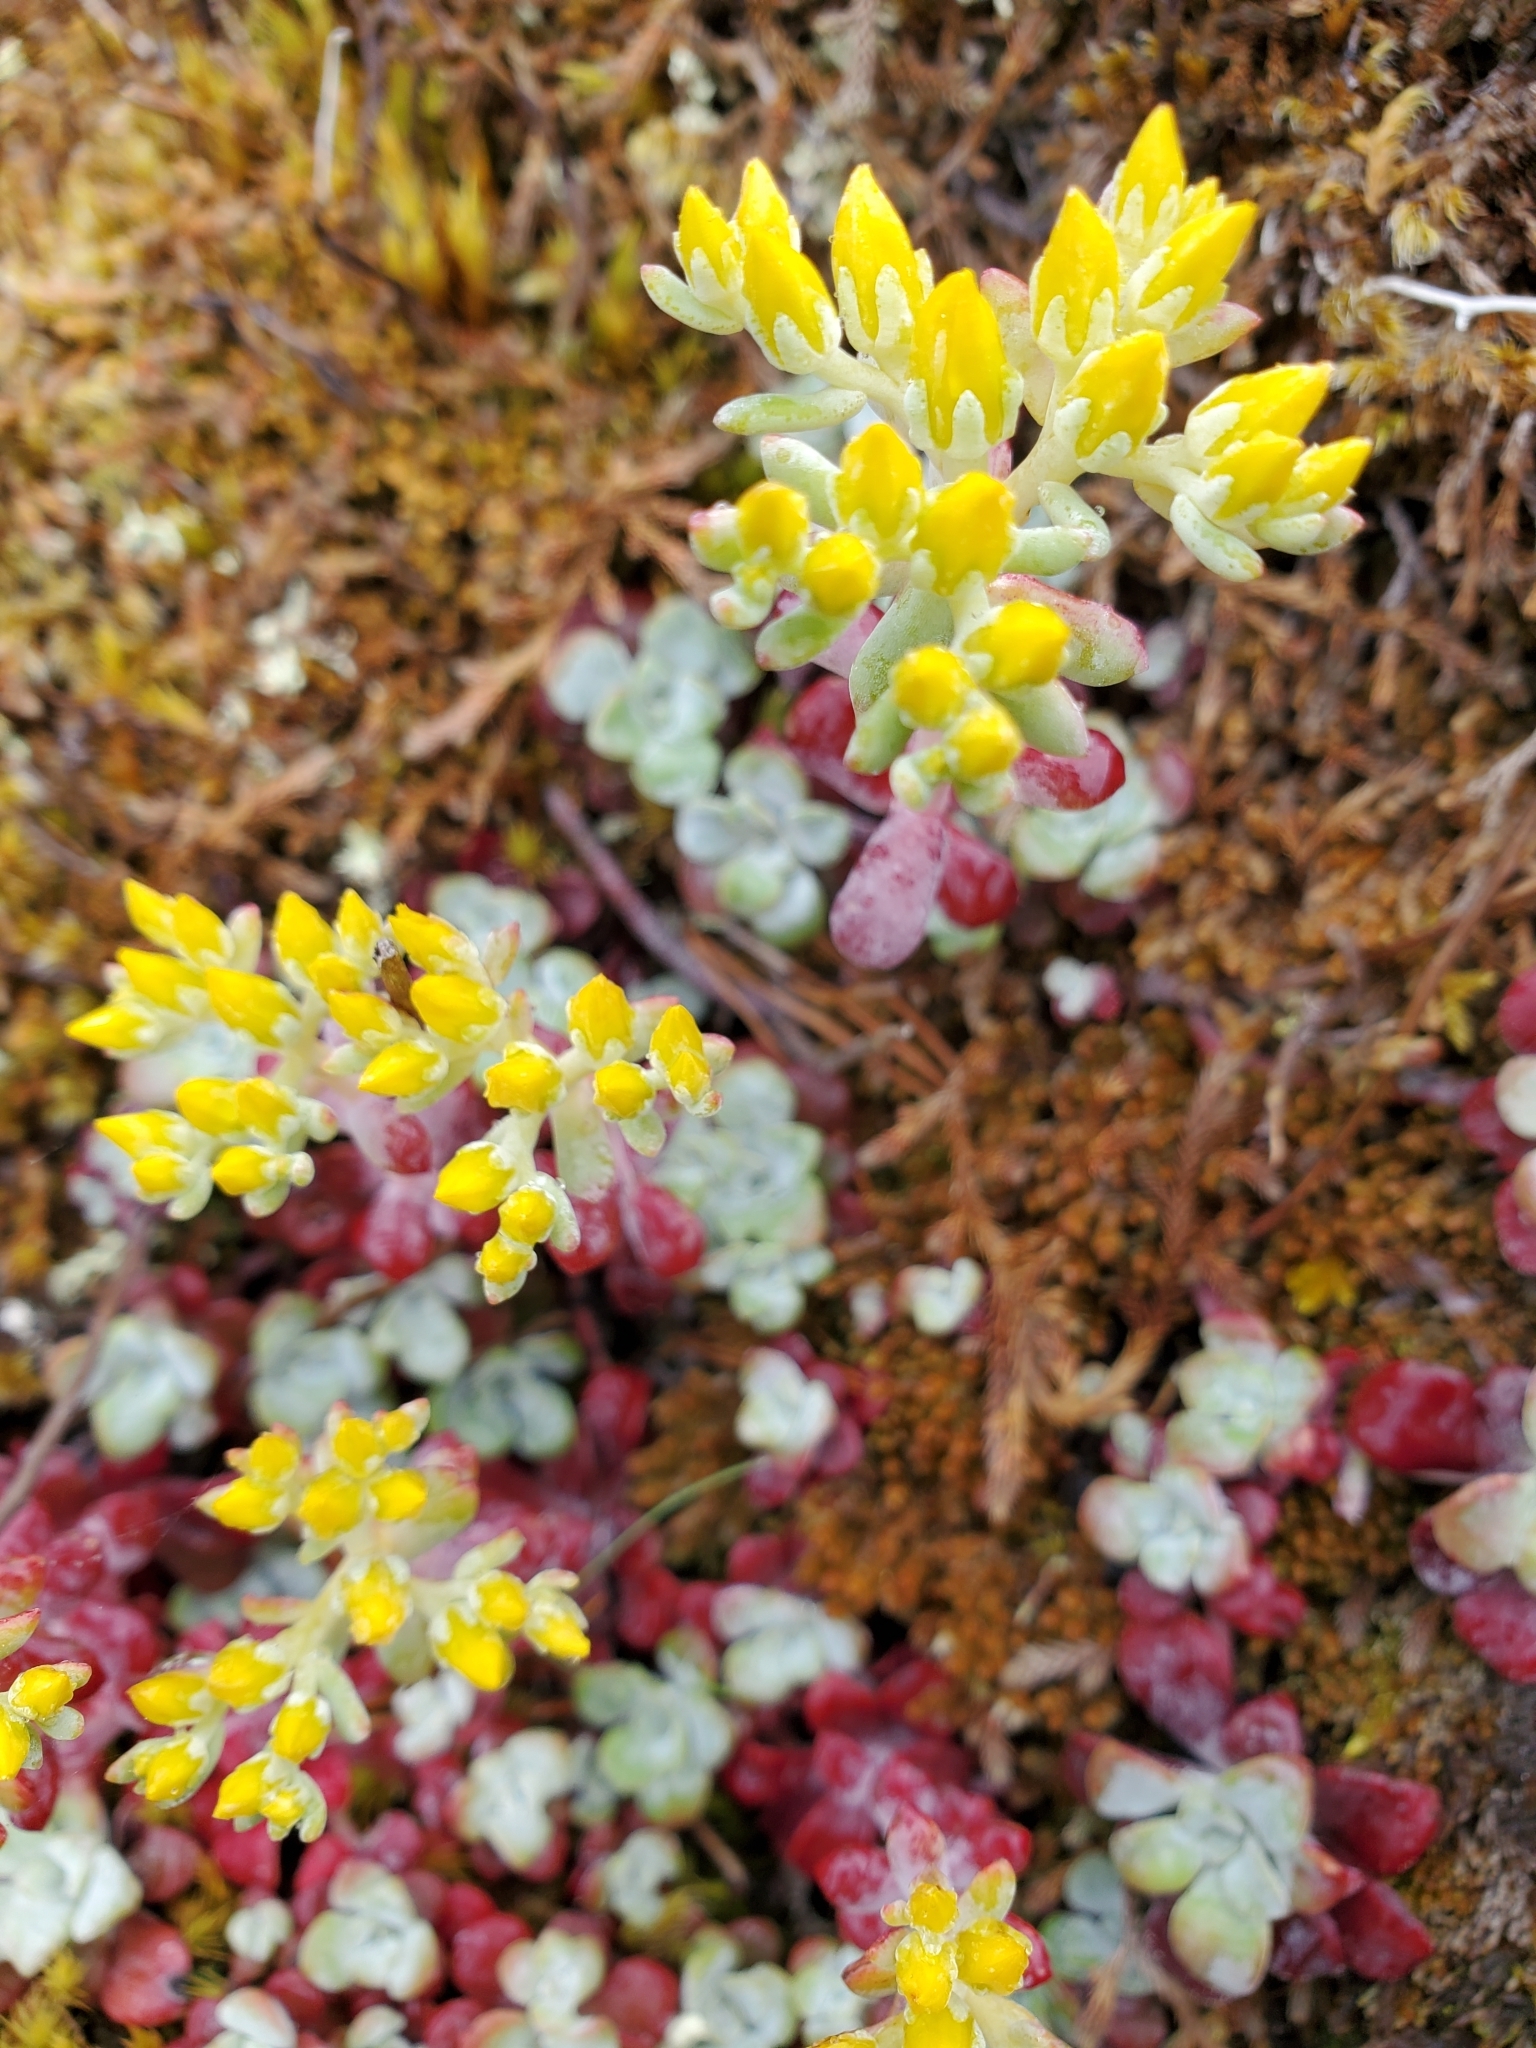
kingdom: Plantae
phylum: Tracheophyta
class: Magnoliopsida
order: Saxifragales
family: Crassulaceae
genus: Sedum
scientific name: Sedum spathulifolium
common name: Colorado stonecrop
